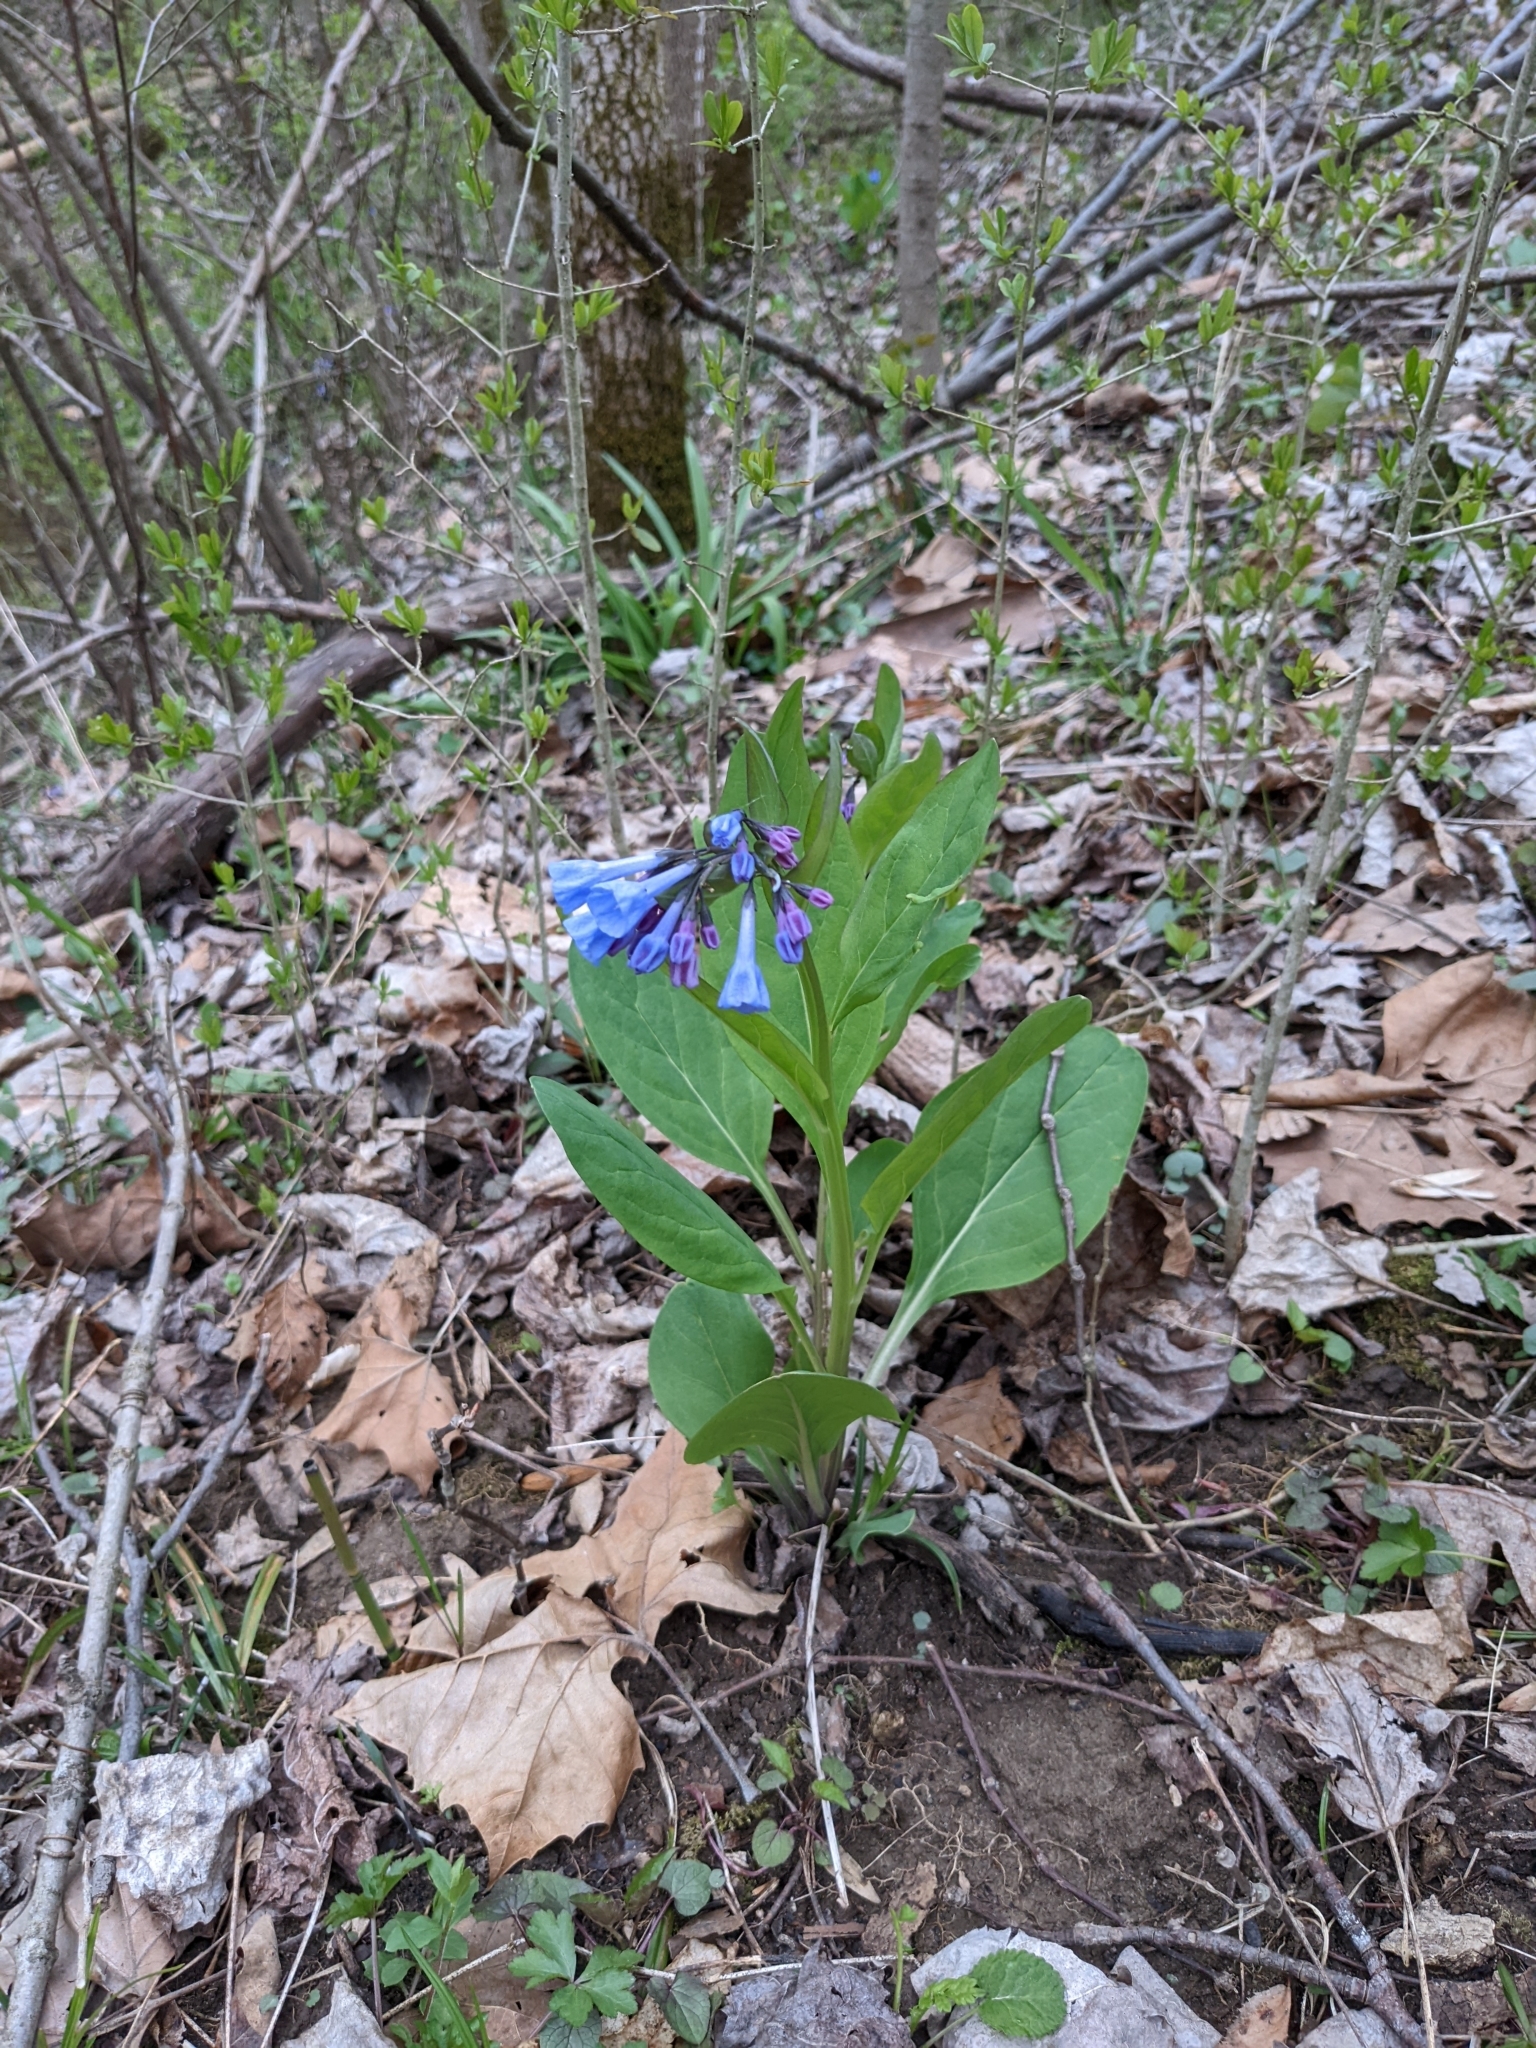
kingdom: Plantae
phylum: Tracheophyta
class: Magnoliopsida
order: Boraginales
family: Boraginaceae
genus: Mertensia
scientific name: Mertensia virginica
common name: Virginia bluebells
